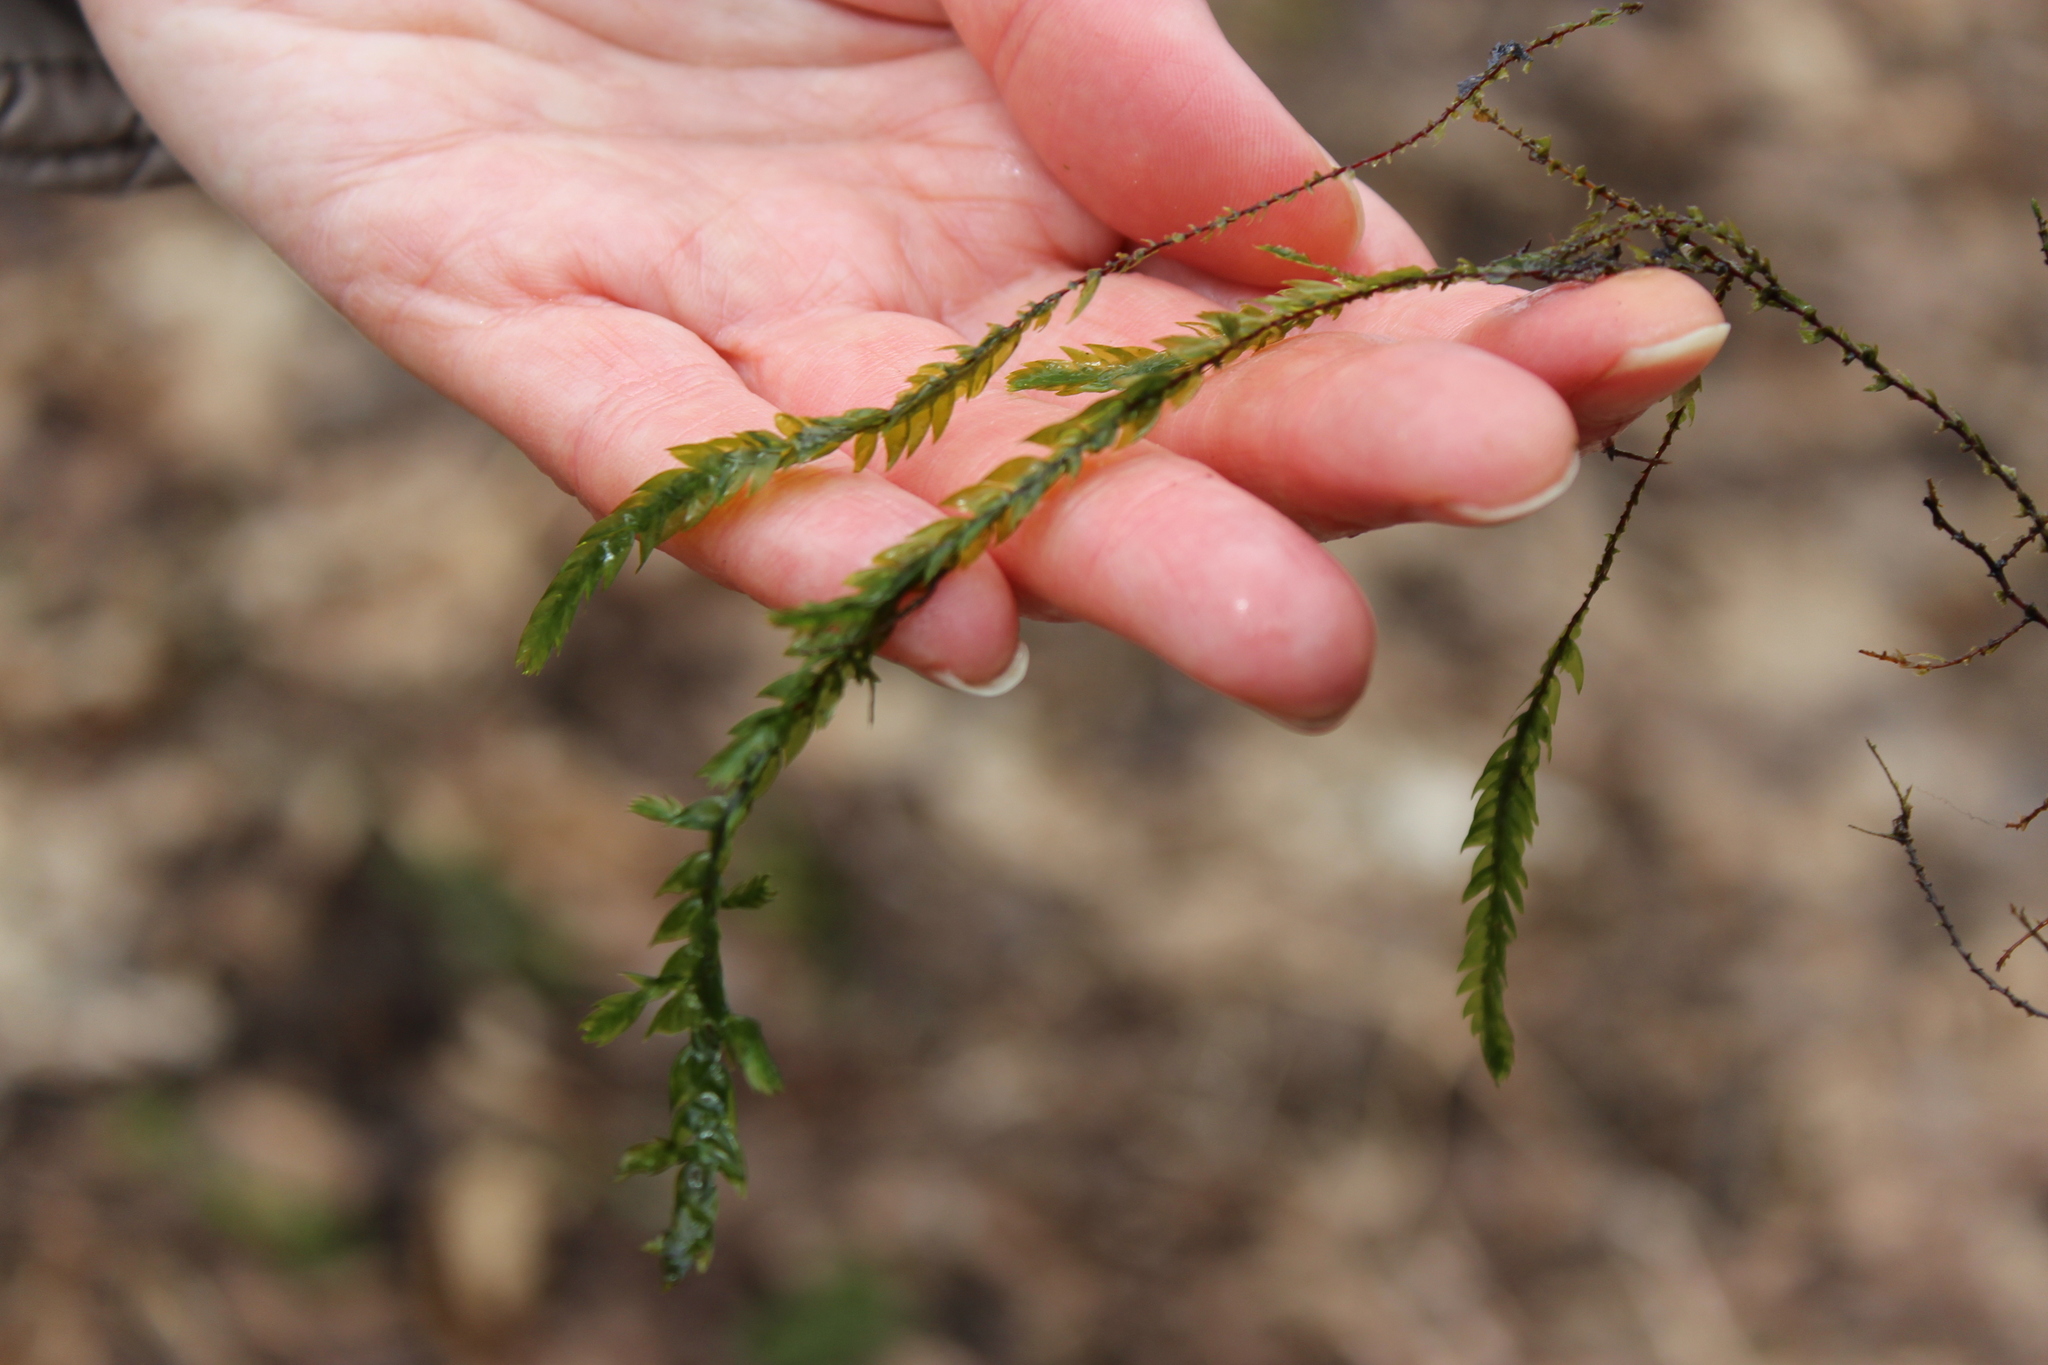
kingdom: Plantae
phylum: Bryophyta
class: Bryopsida
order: Hypnales
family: Fontinalaceae
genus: Fontinalis
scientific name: Fontinalis antipyretica
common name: Greater water-moss
